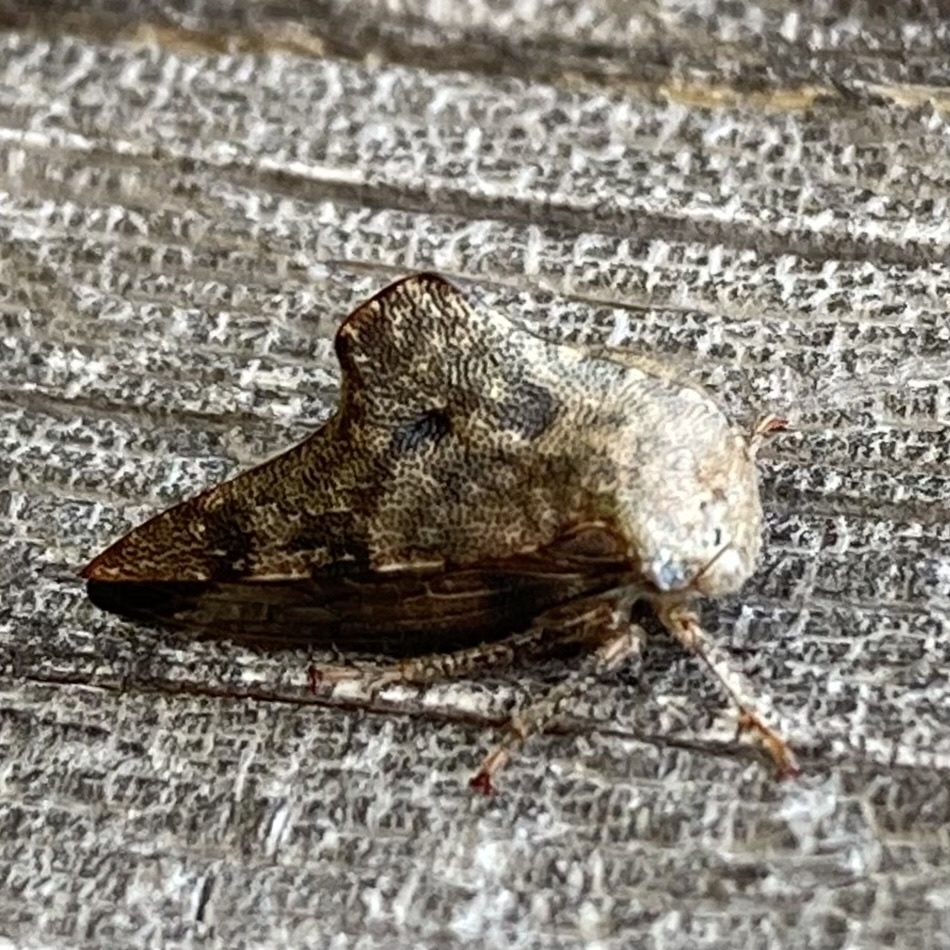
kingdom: Animalia
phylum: Arthropoda
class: Insecta
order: Hemiptera
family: Membracidae
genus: Telamona
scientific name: Telamona spreta
